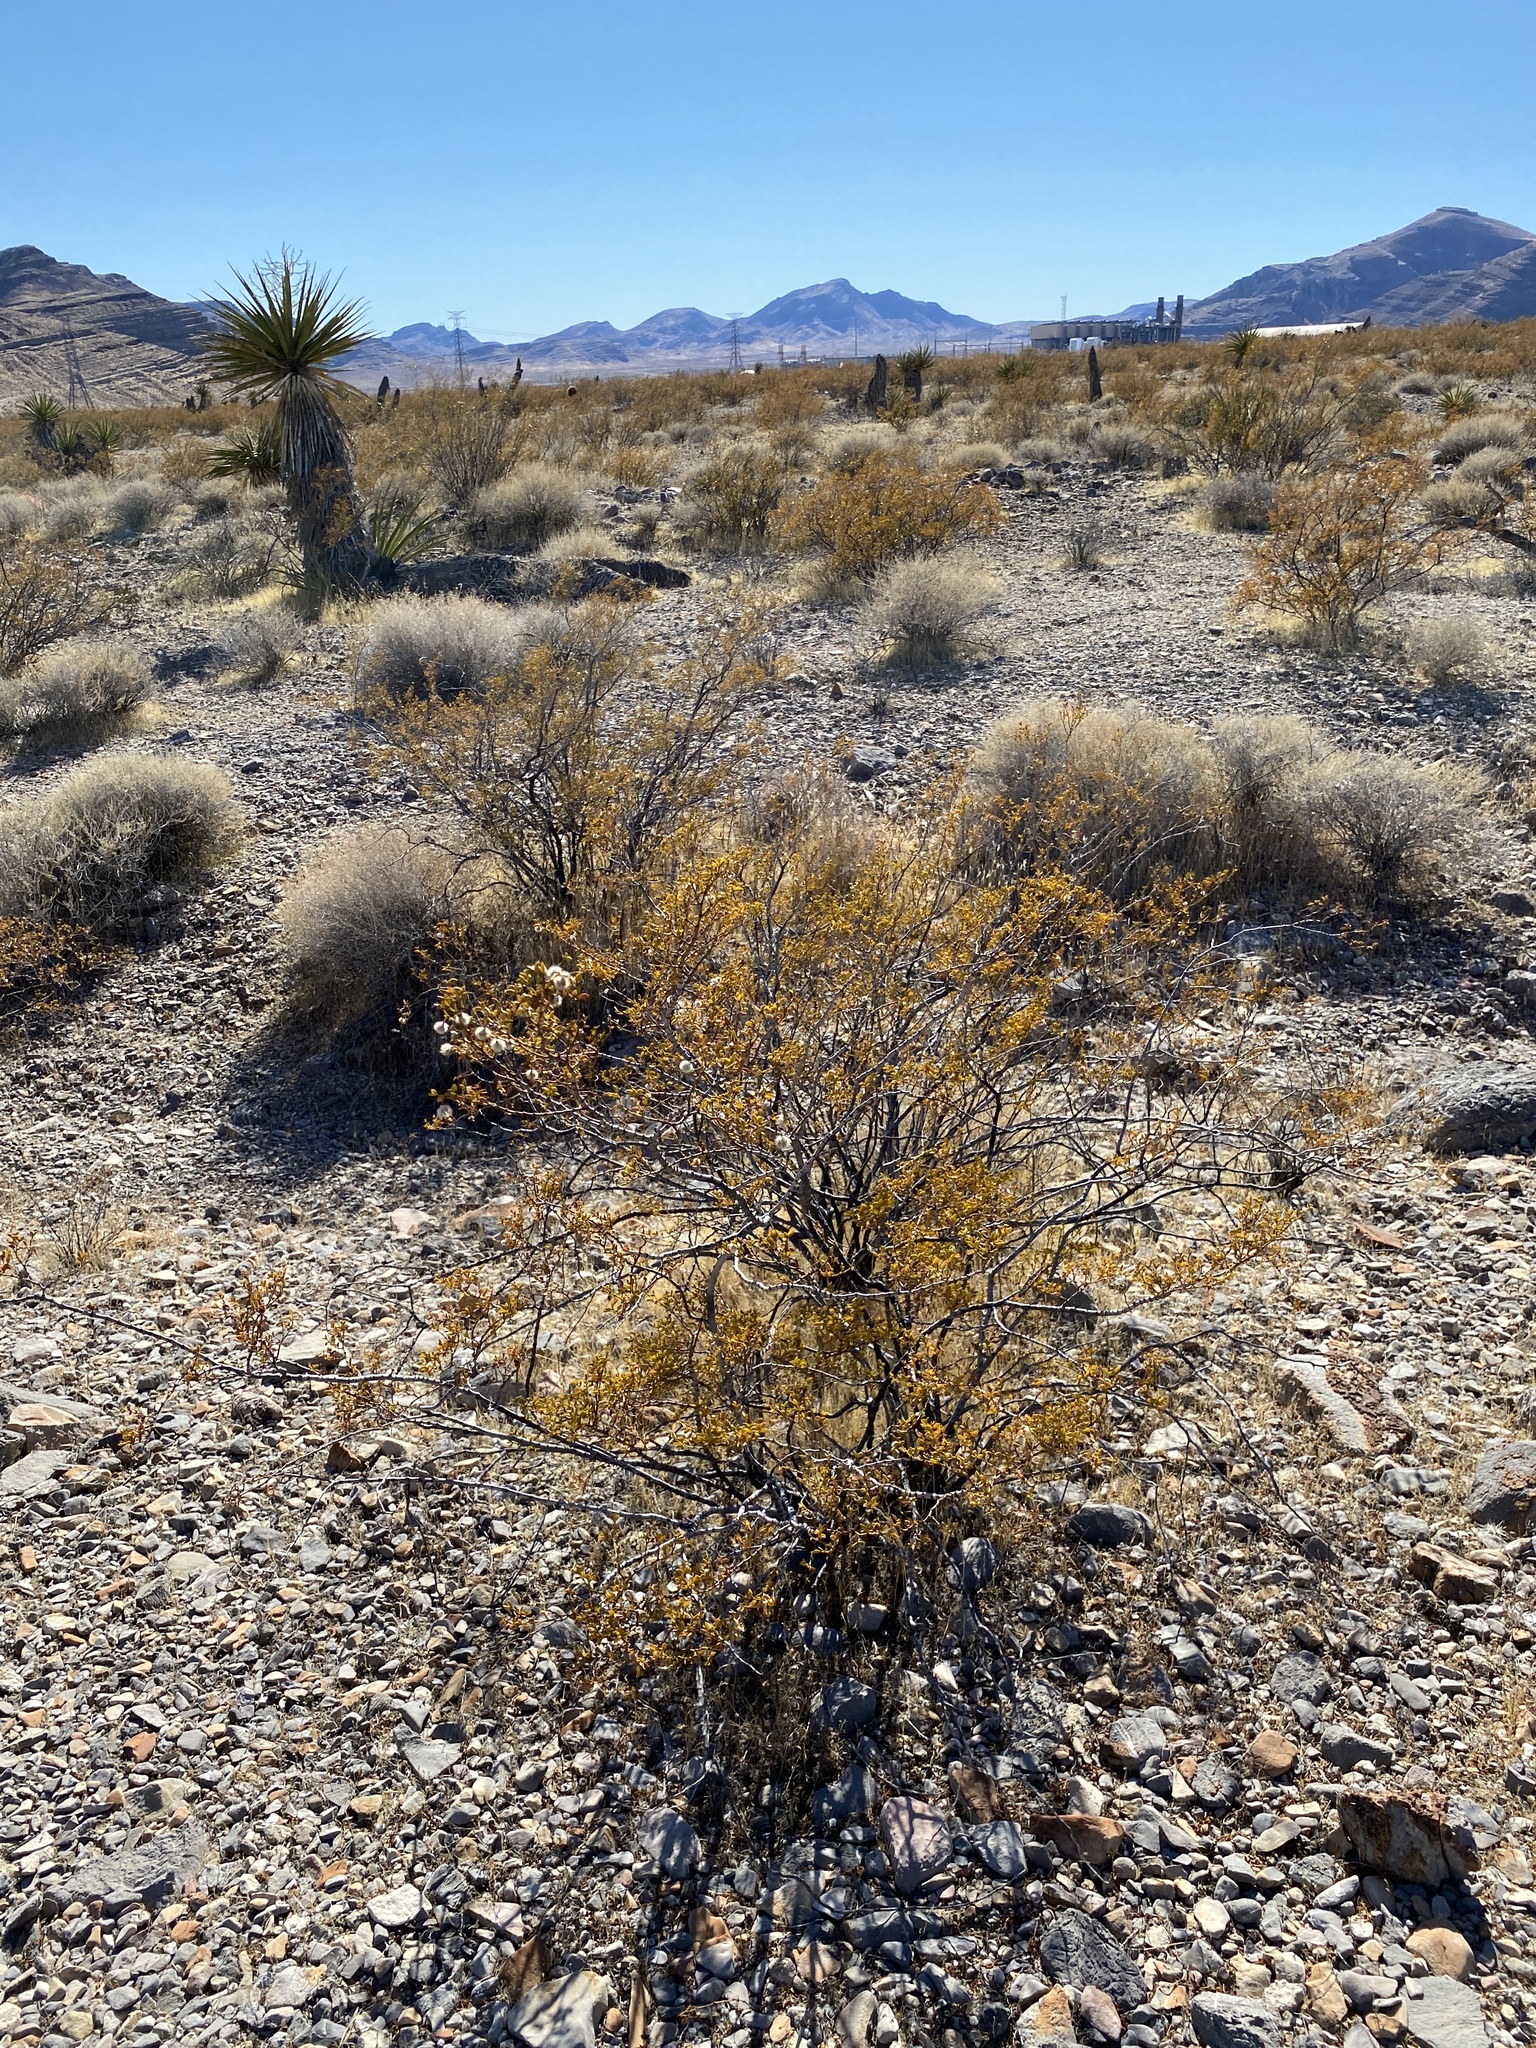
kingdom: Plantae
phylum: Tracheophyta
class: Magnoliopsida
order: Zygophyllales
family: Zygophyllaceae
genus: Larrea
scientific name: Larrea tridentata
